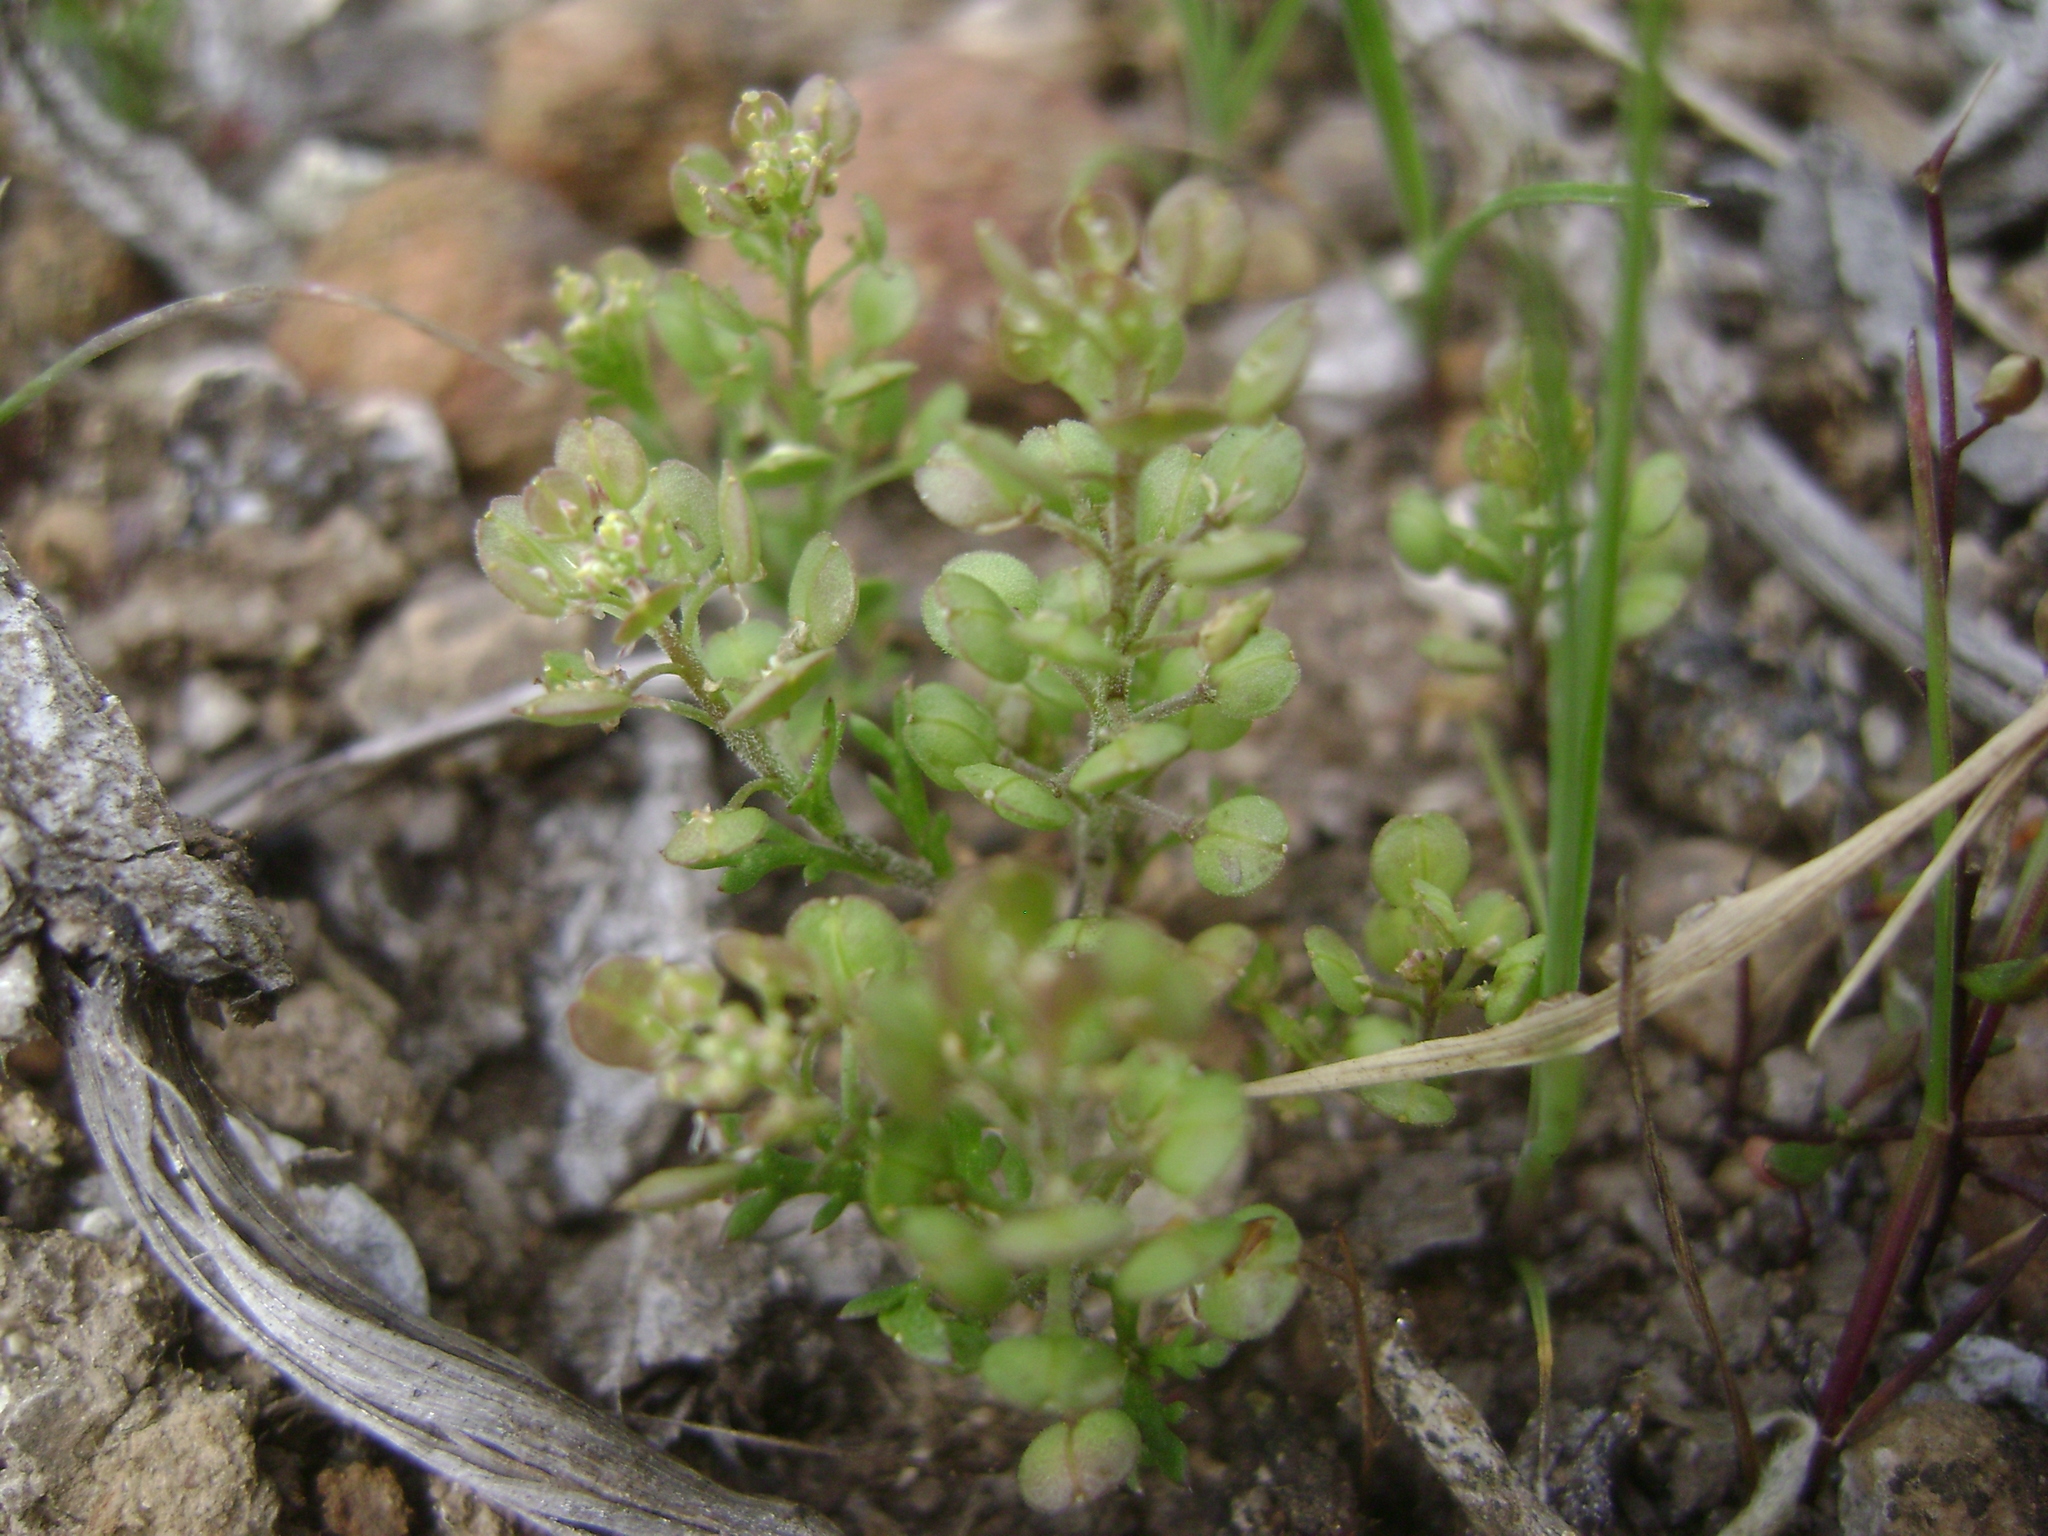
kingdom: Plantae
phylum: Tracheophyta
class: Magnoliopsida
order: Brassicales
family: Brassicaceae
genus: Lepidium
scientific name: Lepidium oblongum
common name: Veiny pepperweed
